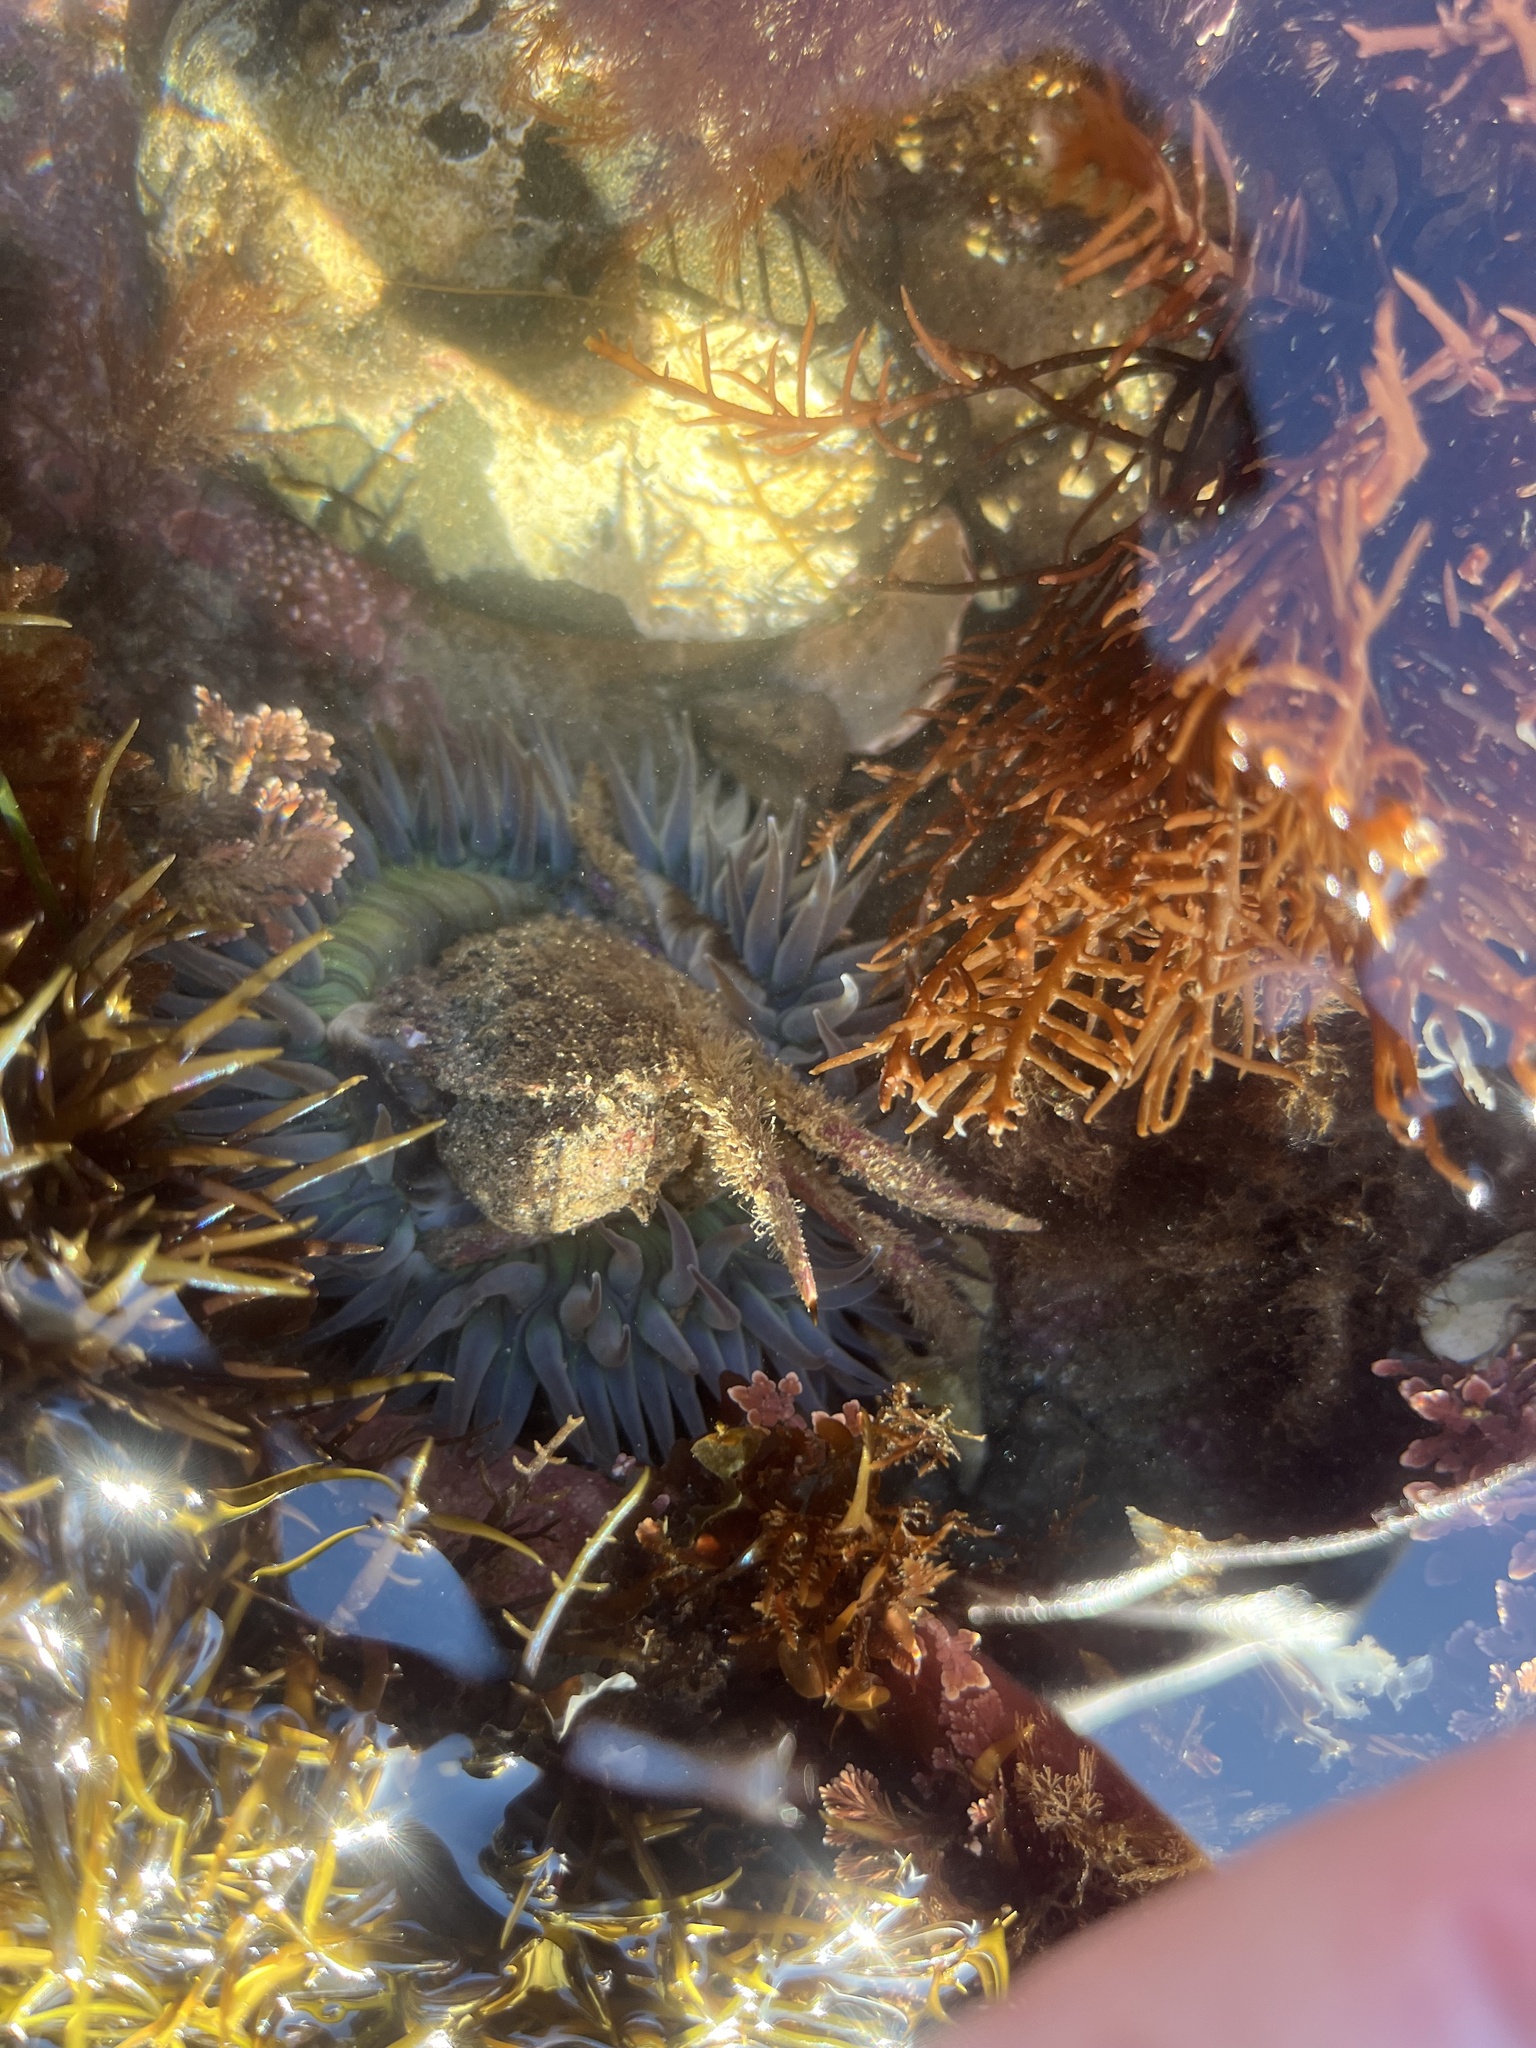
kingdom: Animalia
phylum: Cnidaria
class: Anthozoa
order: Actiniaria
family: Actiniidae
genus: Anthopleura
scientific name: Anthopleura sola
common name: Sun anemone
